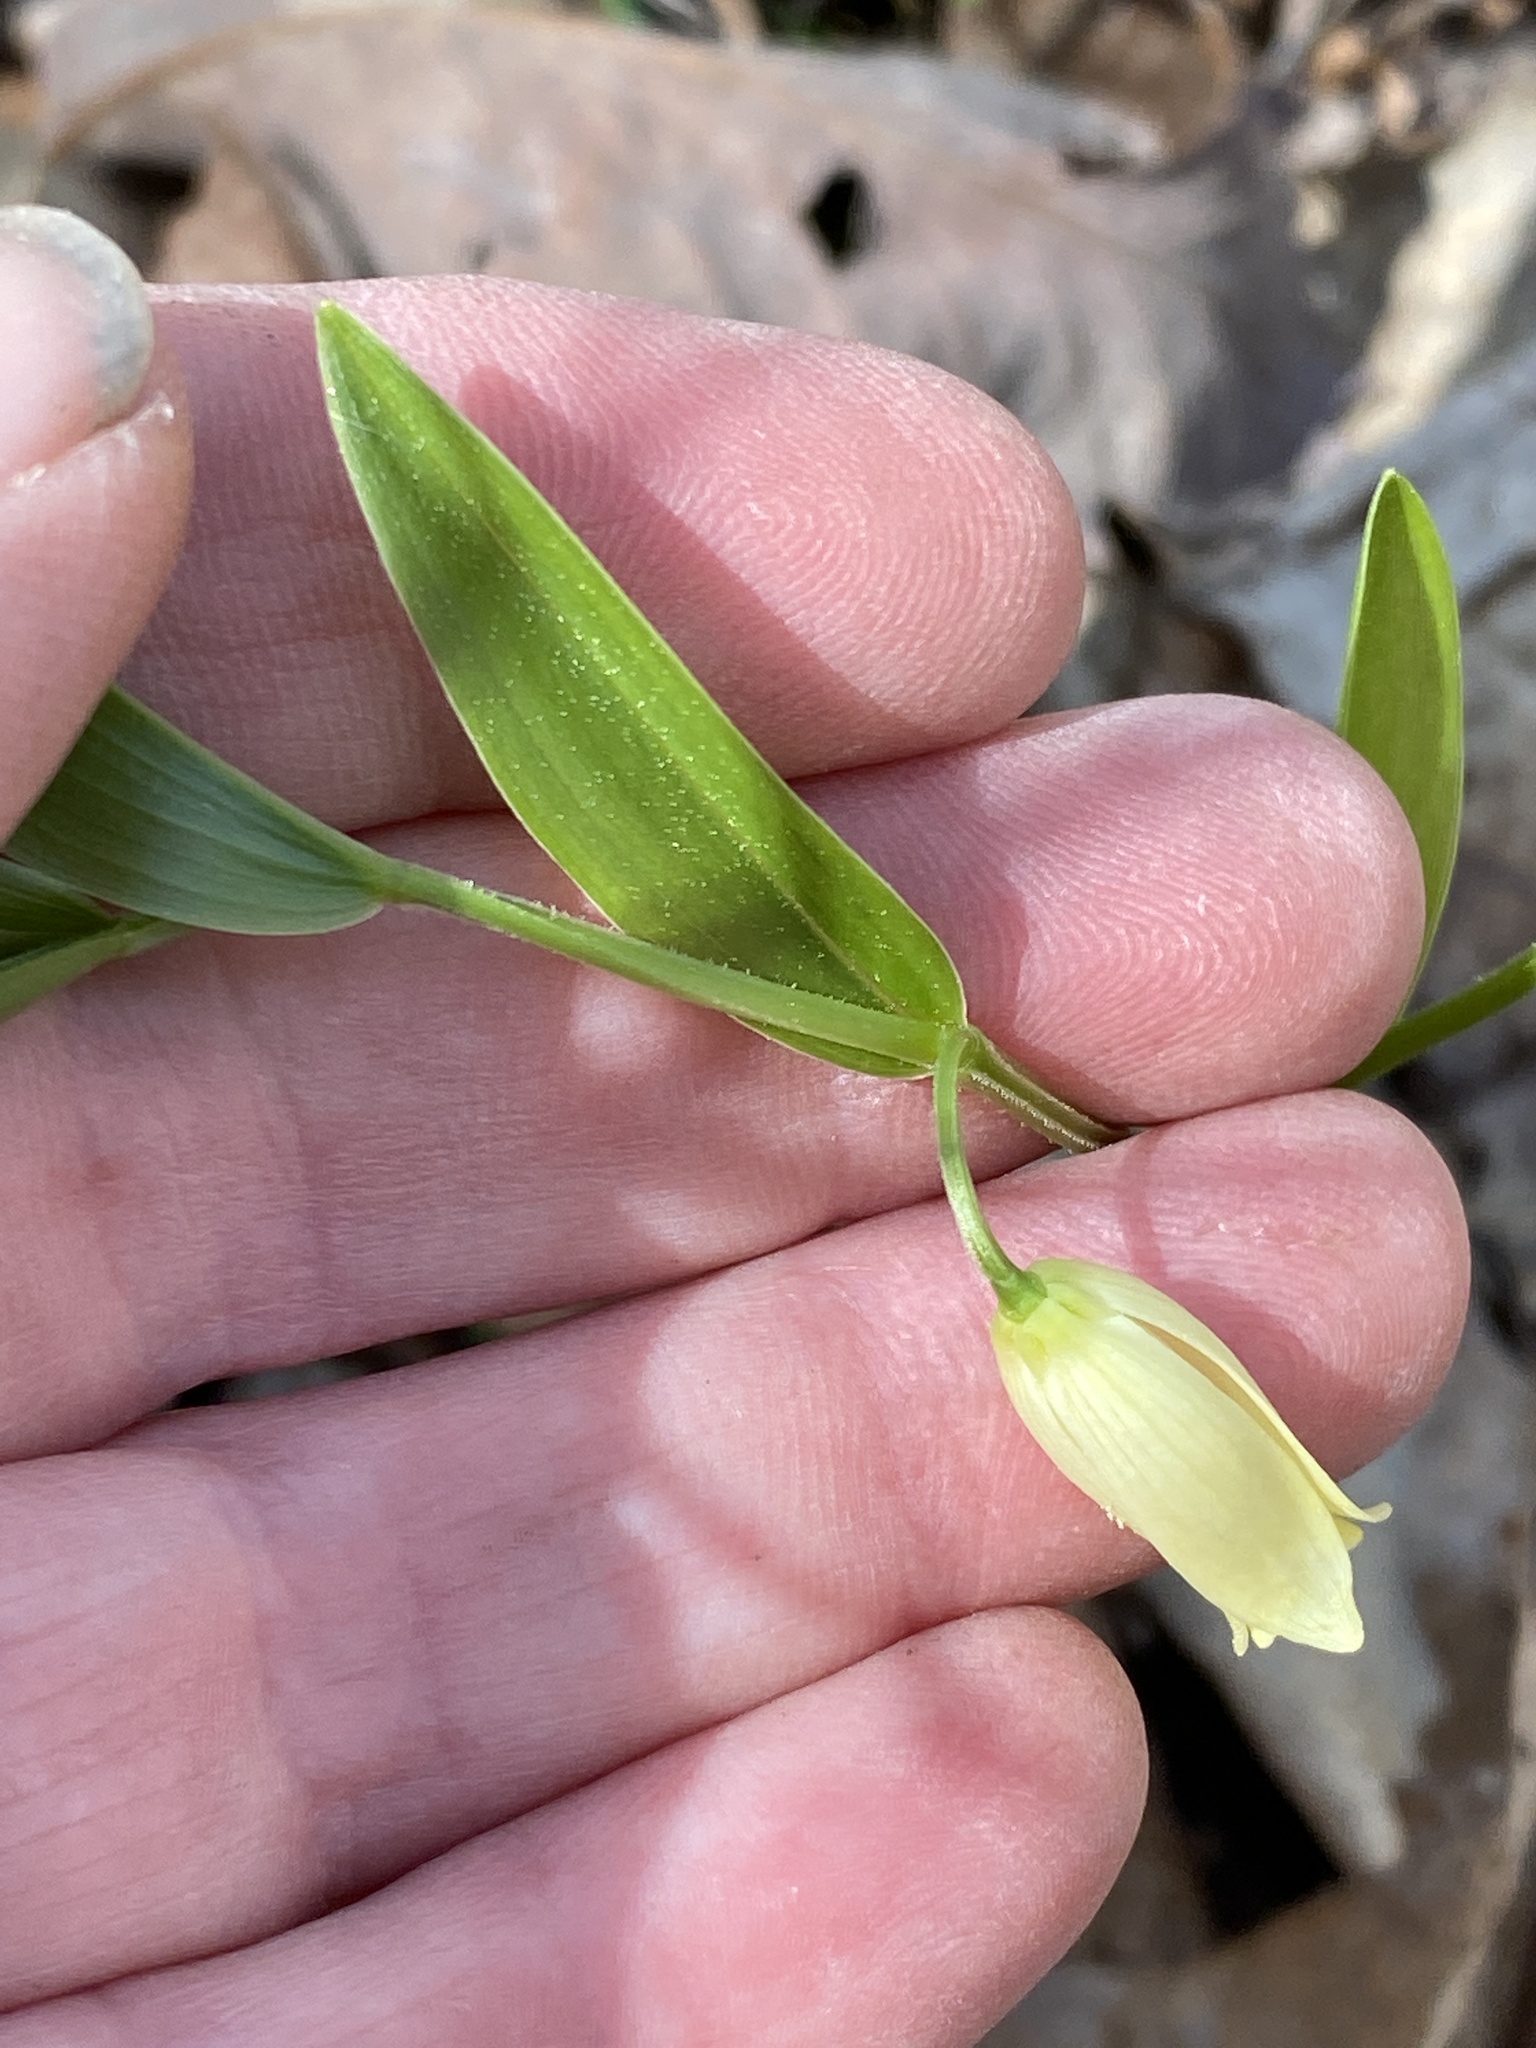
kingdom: Plantae
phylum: Tracheophyta
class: Liliopsida
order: Liliales
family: Colchicaceae
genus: Uvularia
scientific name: Uvularia puberula
